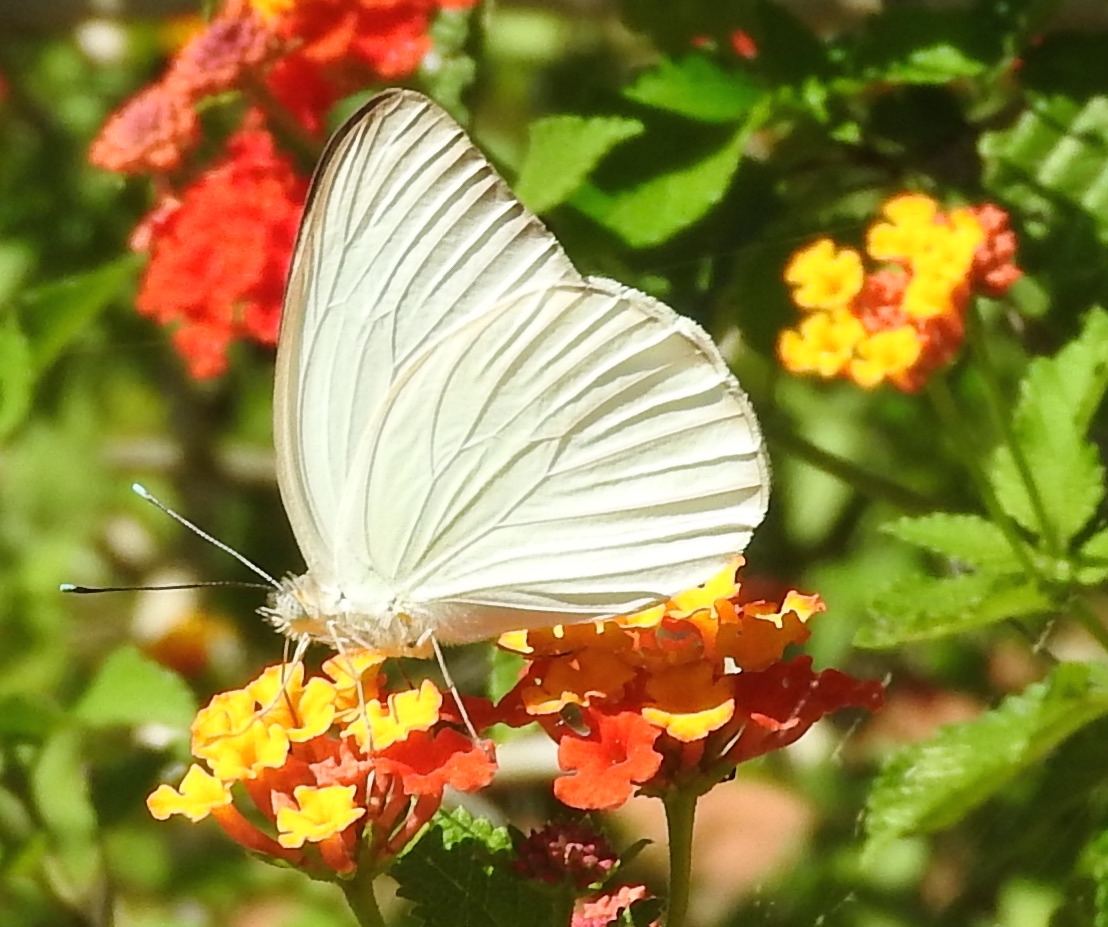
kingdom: Animalia
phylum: Arthropoda
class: Insecta
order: Lepidoptera
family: Pieridae
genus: Ascia
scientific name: Ascia monuste
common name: Great southern white
